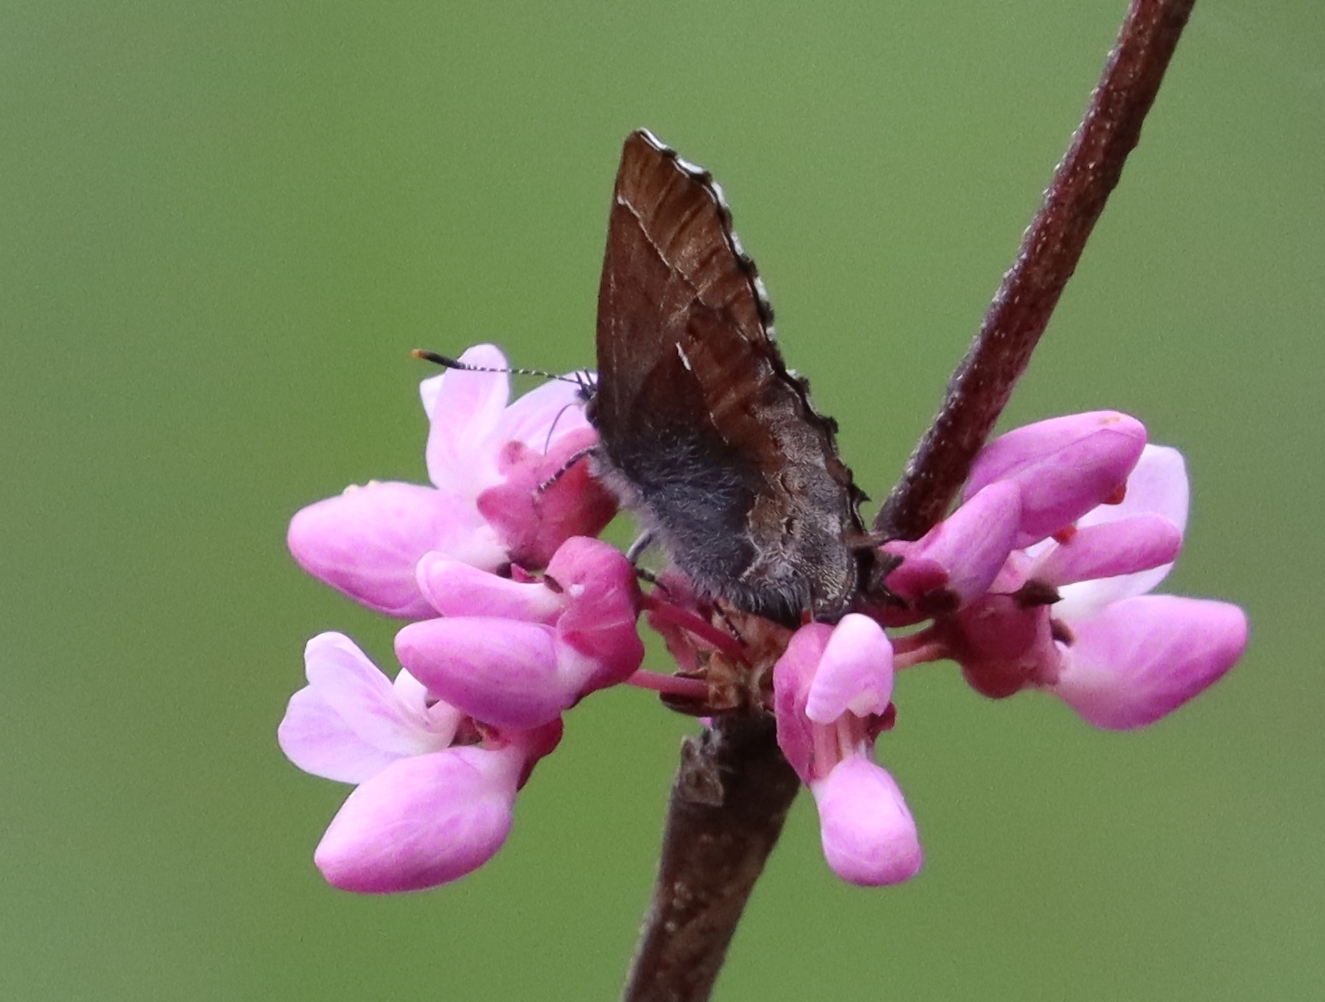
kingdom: Animalia
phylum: Arthropoda
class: Insecta
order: Lepidoptera
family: Lycaenidae
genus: Incisalia
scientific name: Incisalia henrici
